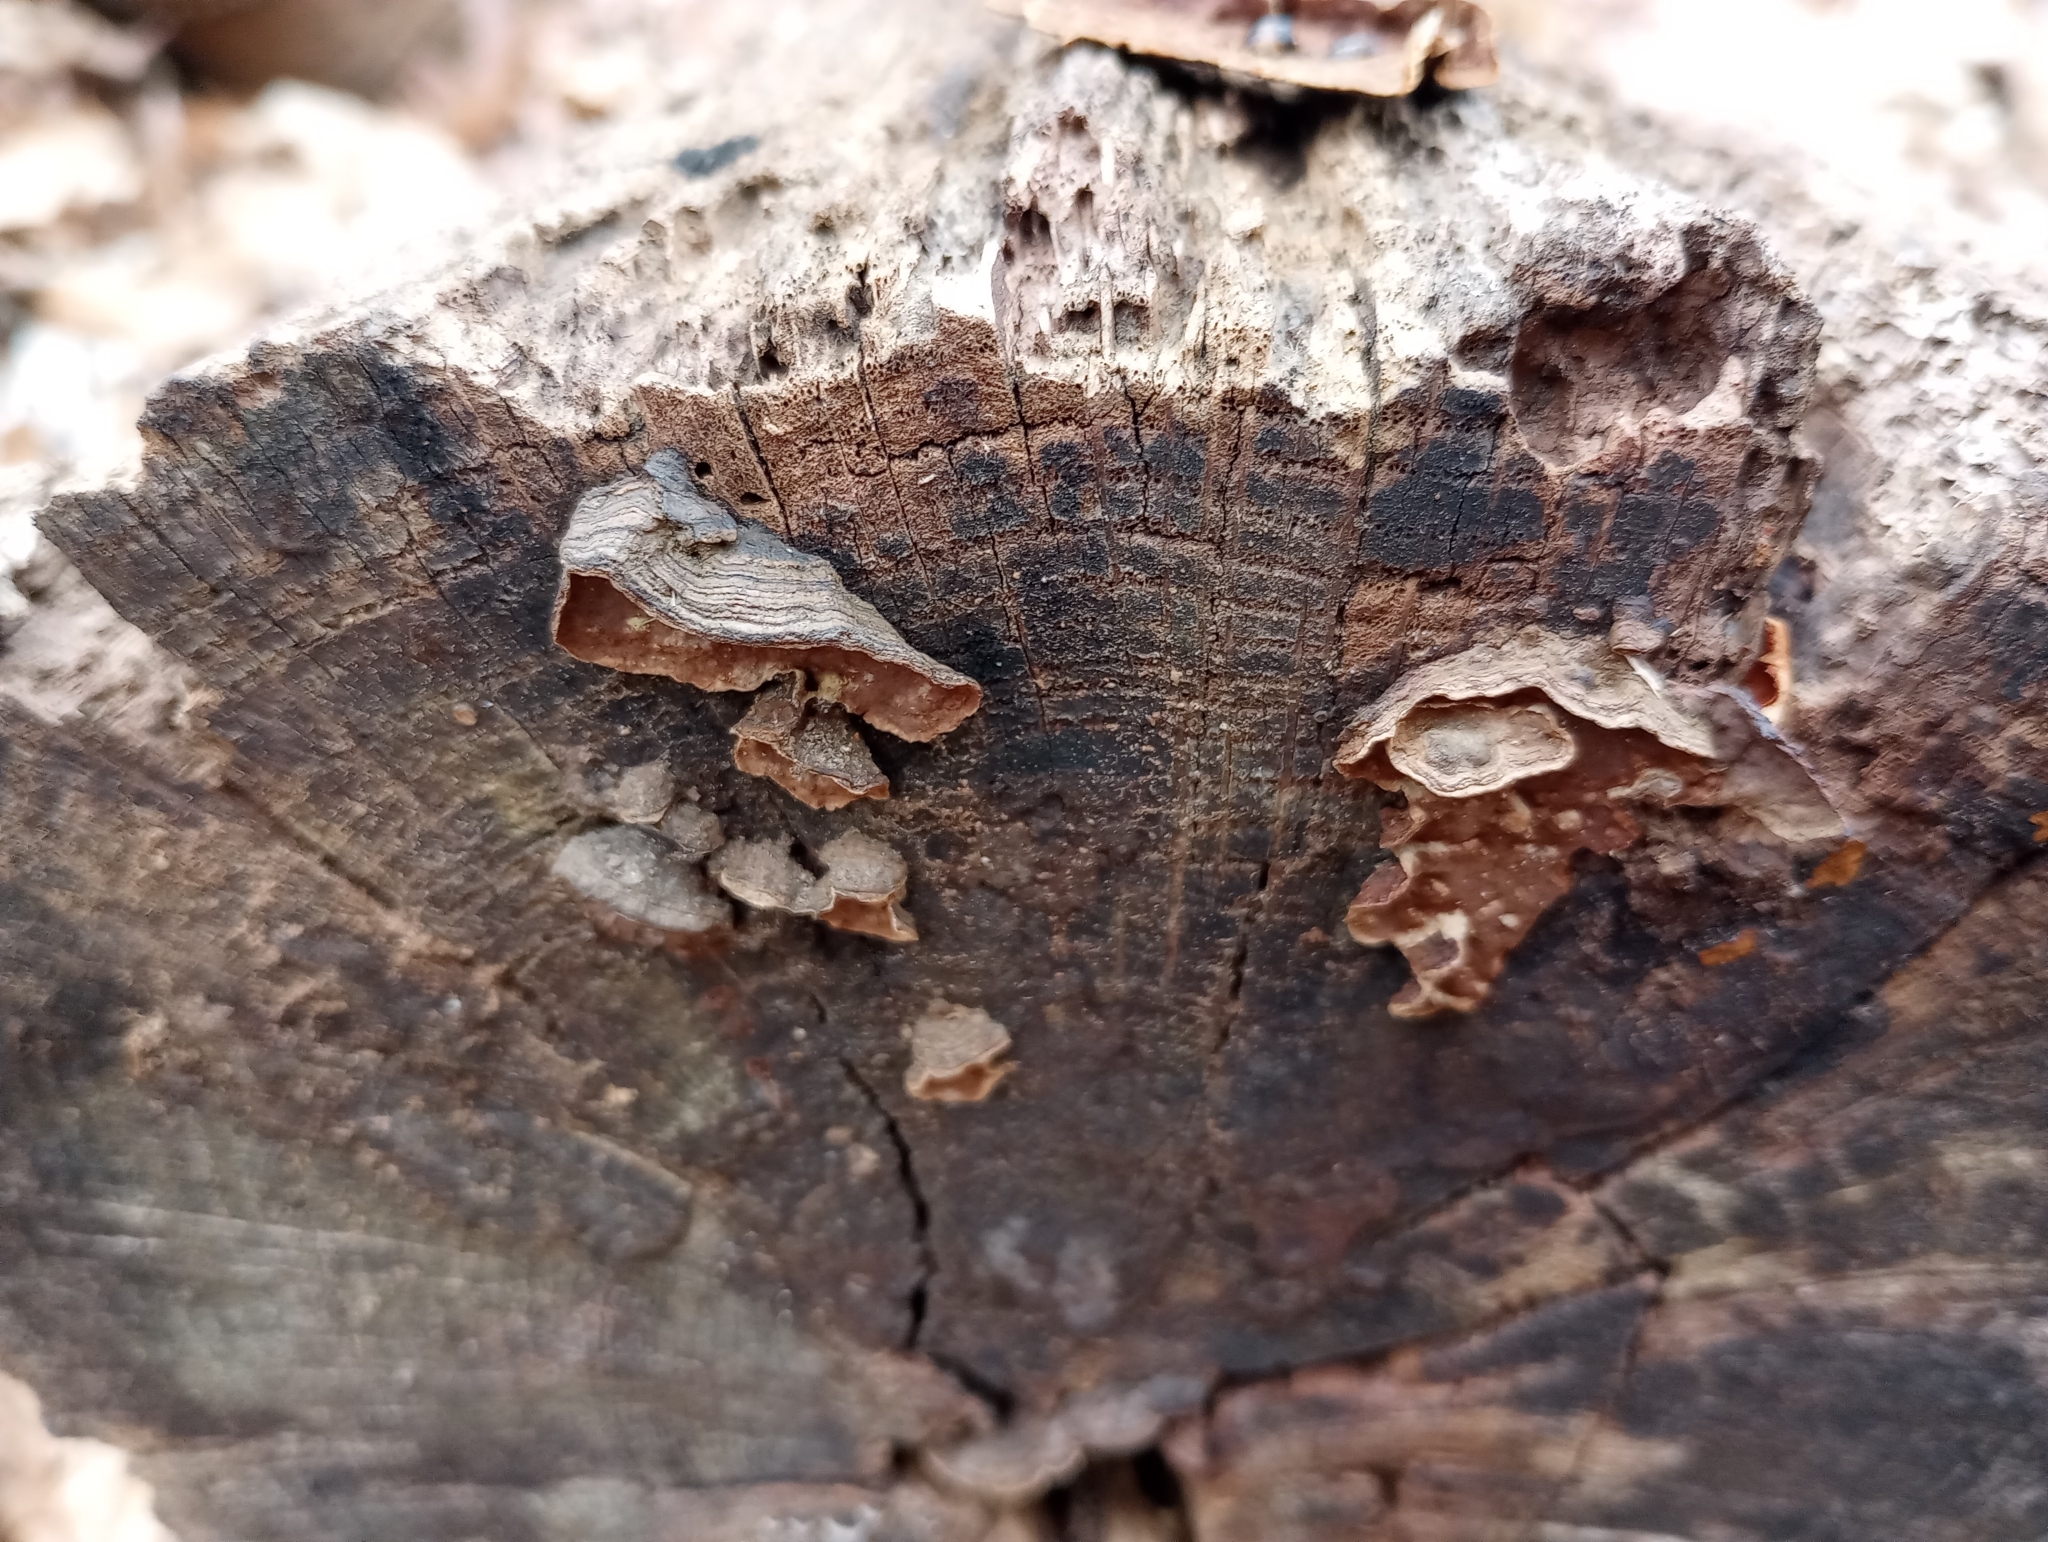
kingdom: Fungi
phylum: Basidiomycota
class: Agaricomycetes
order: Hymenochaetales
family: Hymenochaetaceae
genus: Hymenochaete
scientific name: Hymenochaete rubiginosa
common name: Oak curtain crust
